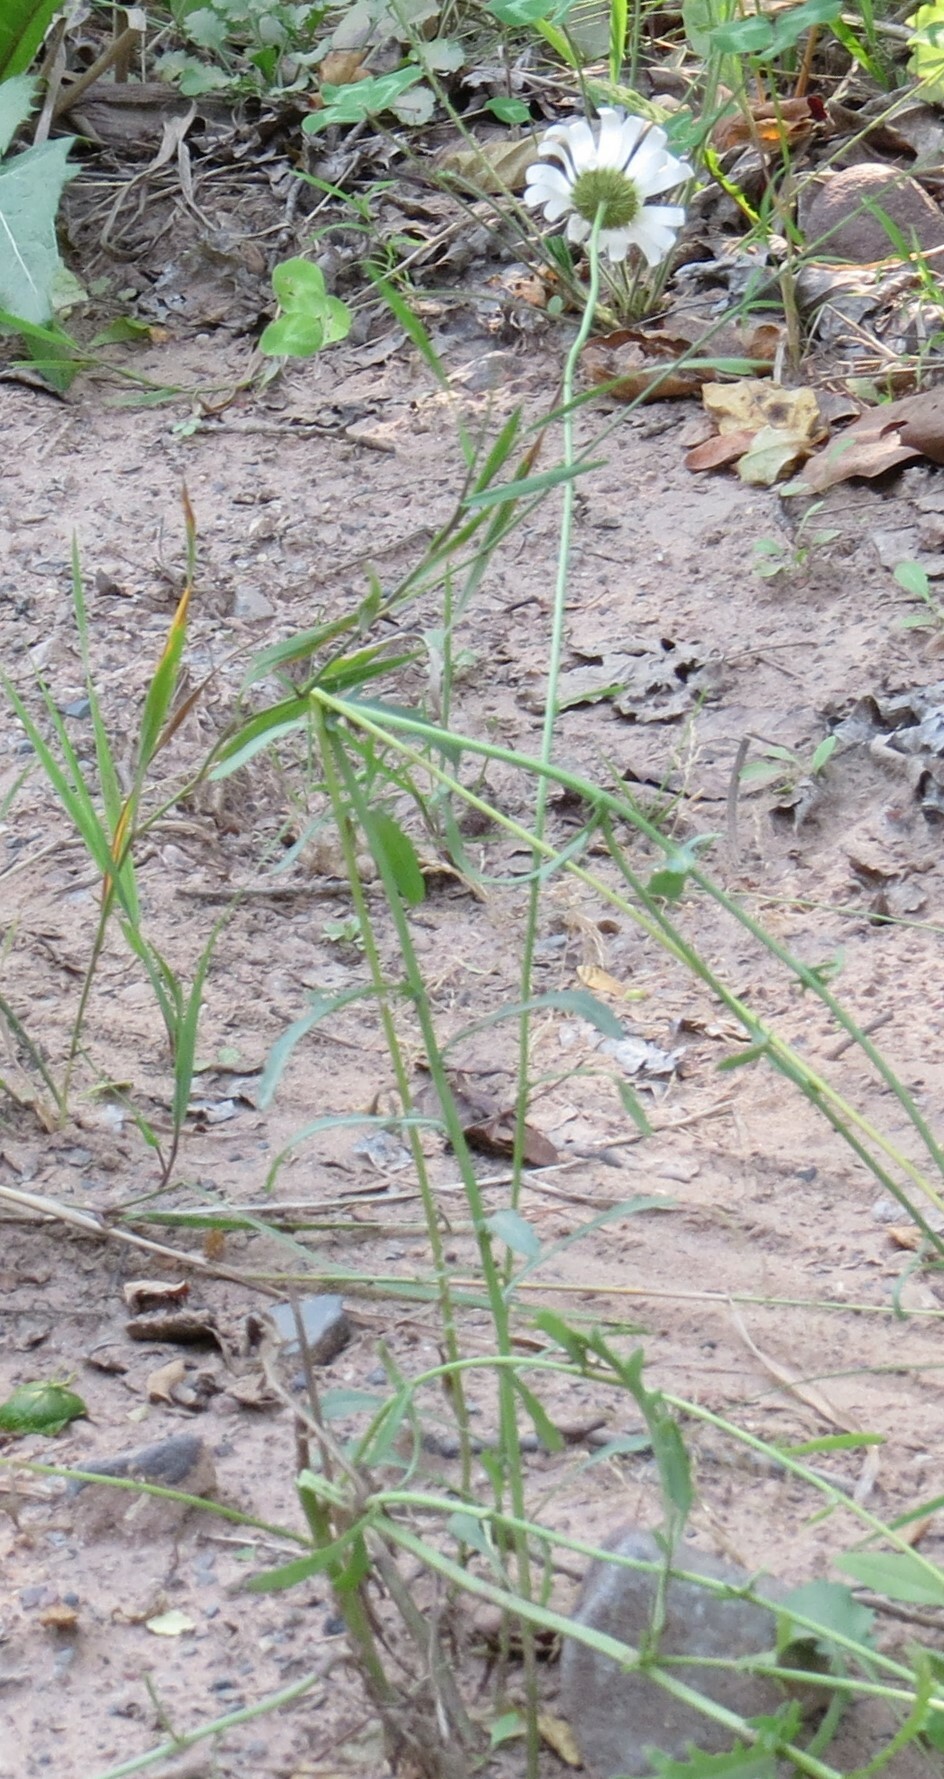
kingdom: Plantae
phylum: Tracheophyta
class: Magnoliopsida
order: Asterales
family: Asteraceae
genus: Leucanthemum
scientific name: Leucanthemum vulgare
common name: Oxeye daisy
